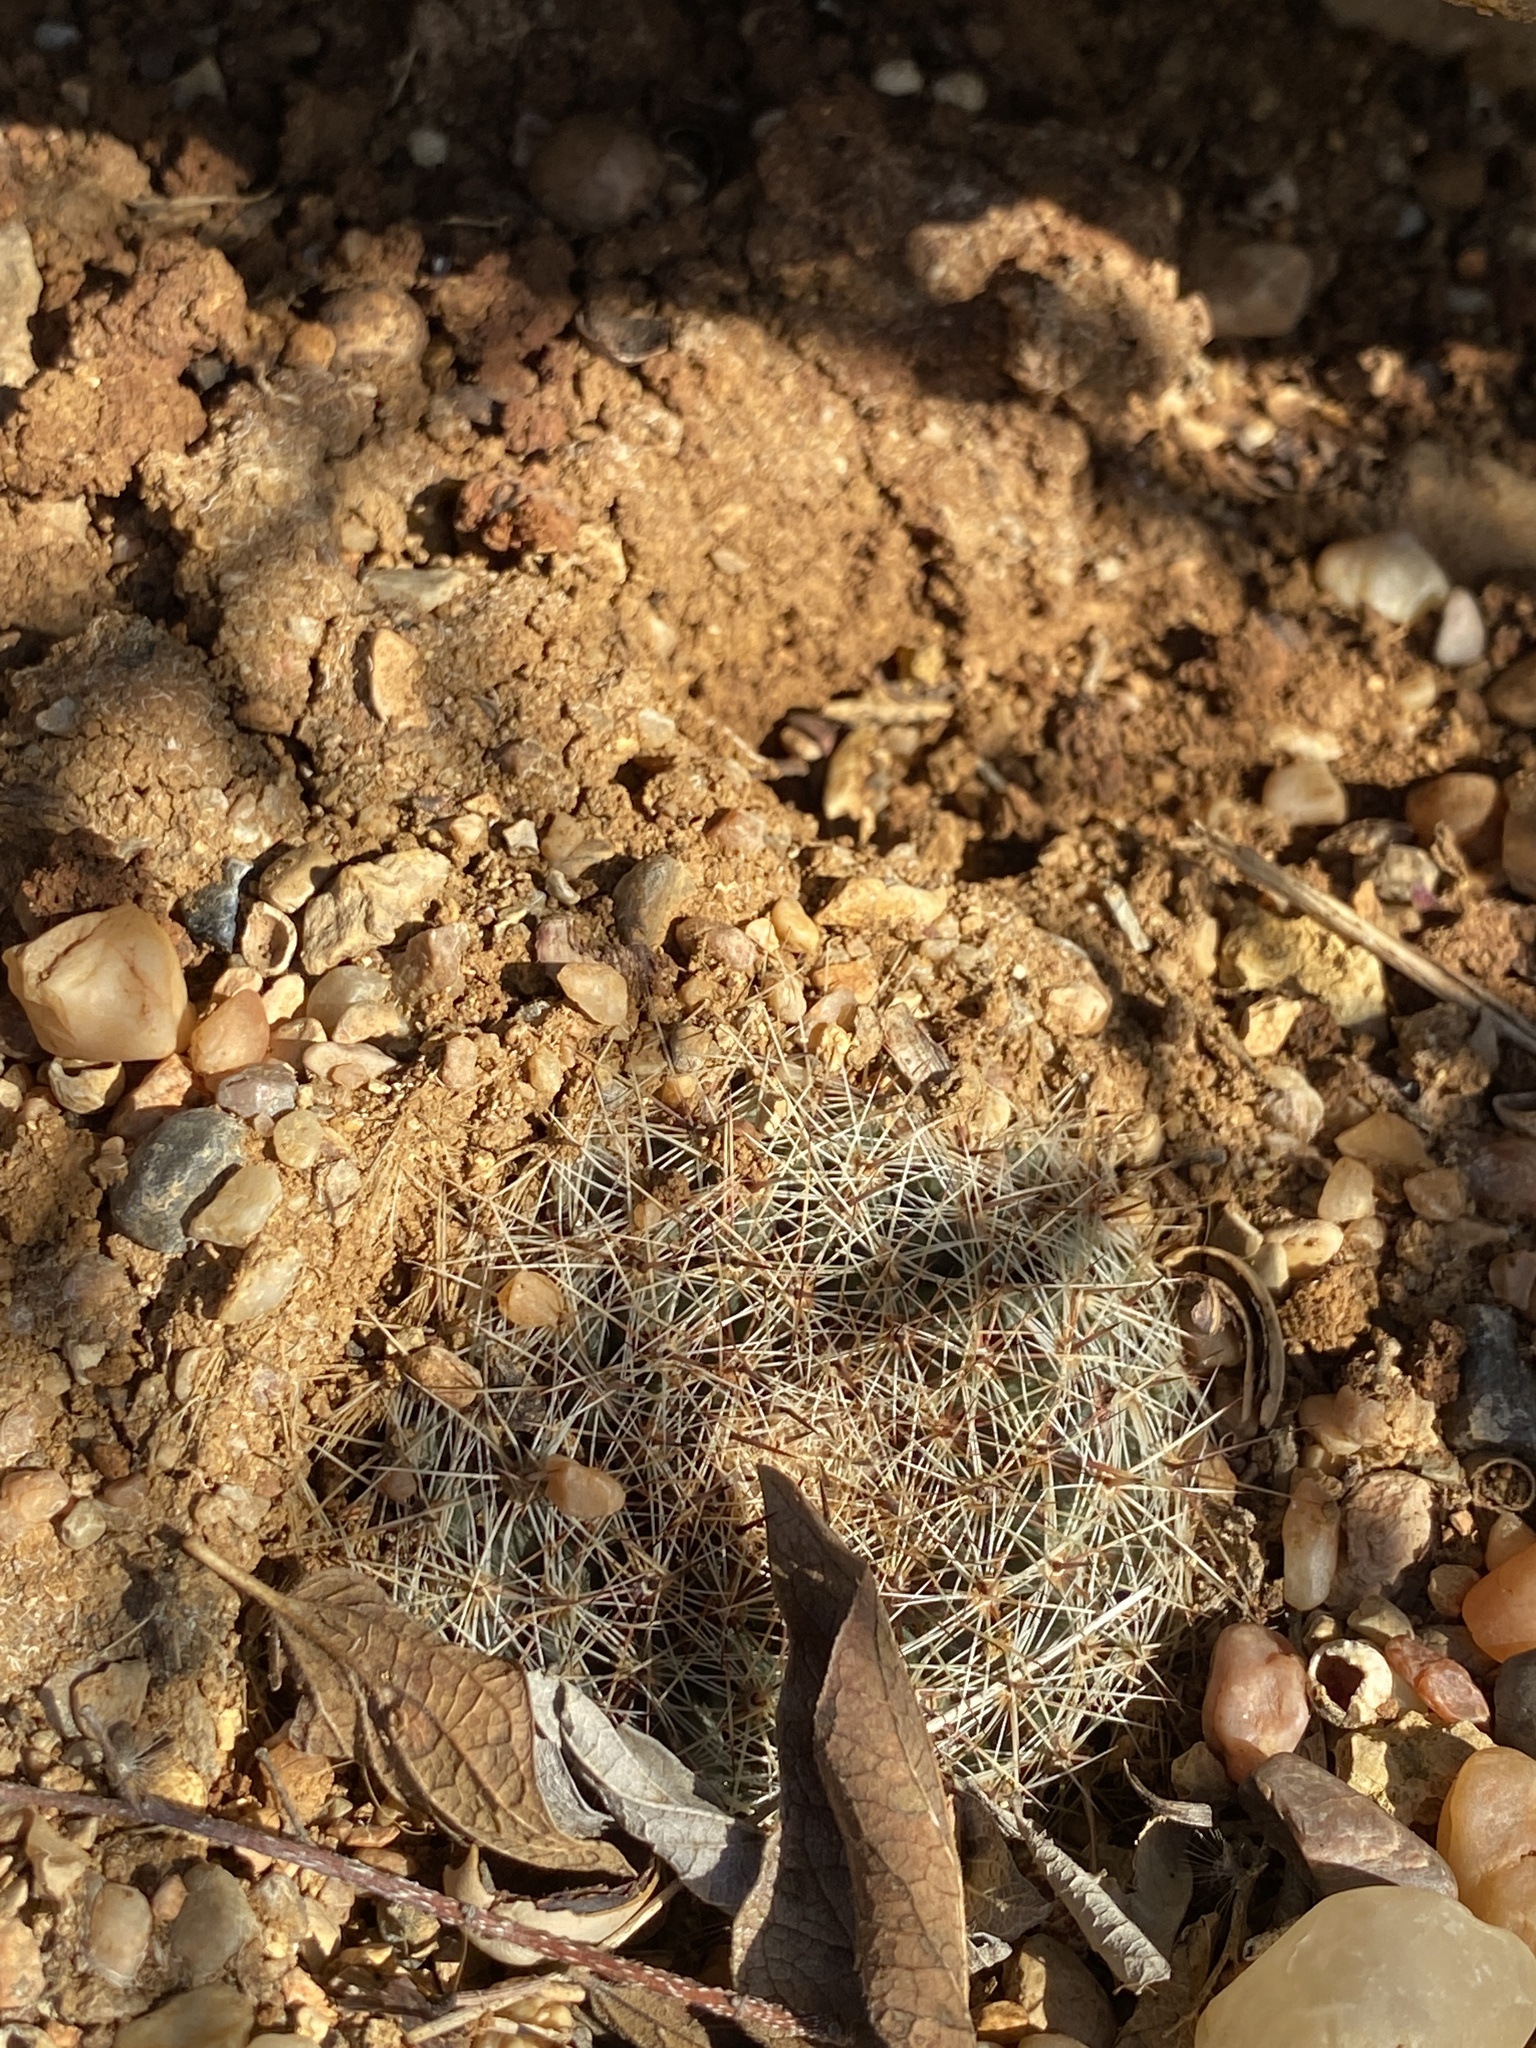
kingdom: Plantae
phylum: Tracheophyta
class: Magnoliopsida
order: Caryophyllales
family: Cactaceae
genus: Mammillaria
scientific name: Mammillaria heyderi
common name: Little nipple cactus
